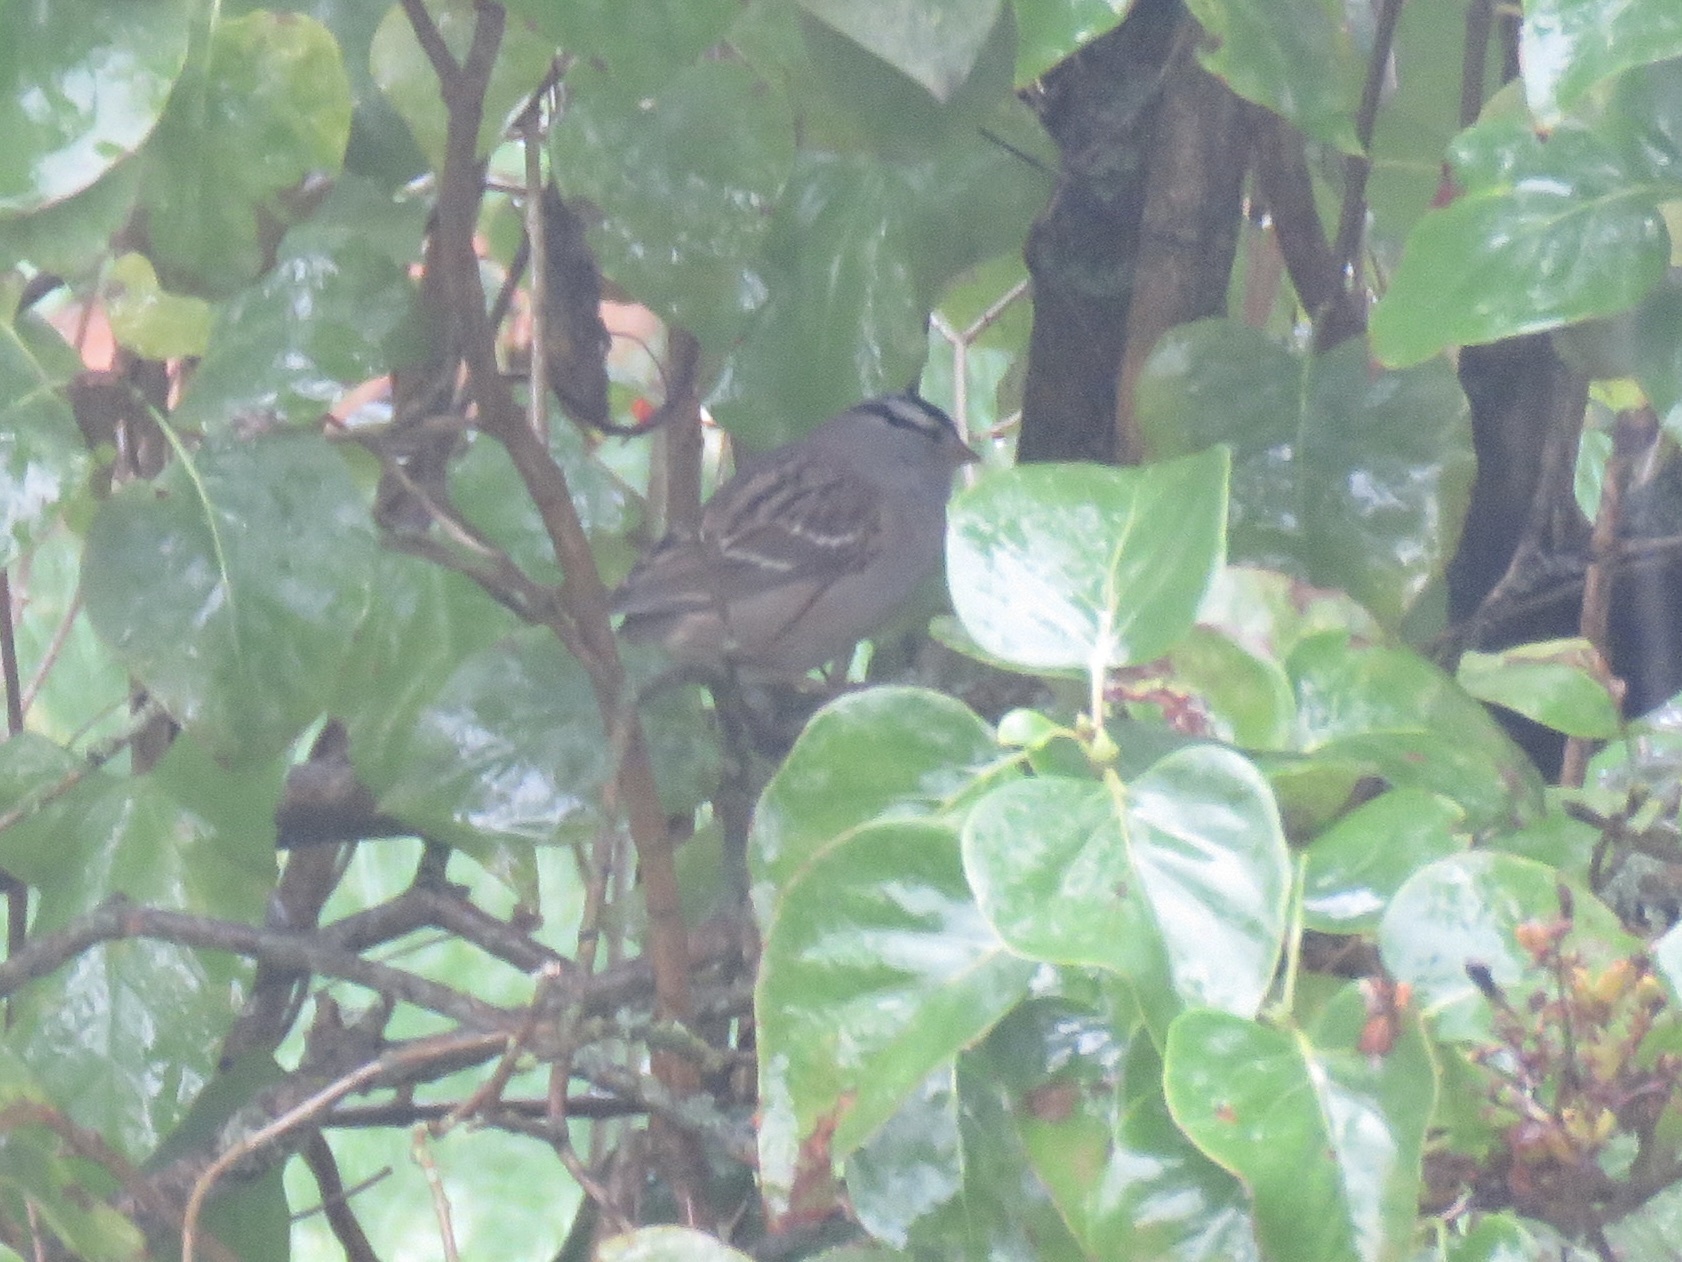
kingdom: Animalia
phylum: Chordata
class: Aves
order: Passeriformes
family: Passerellidae
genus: Zonotrichia
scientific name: Zonotrichia leucophrys
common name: White-crowned sparrow
